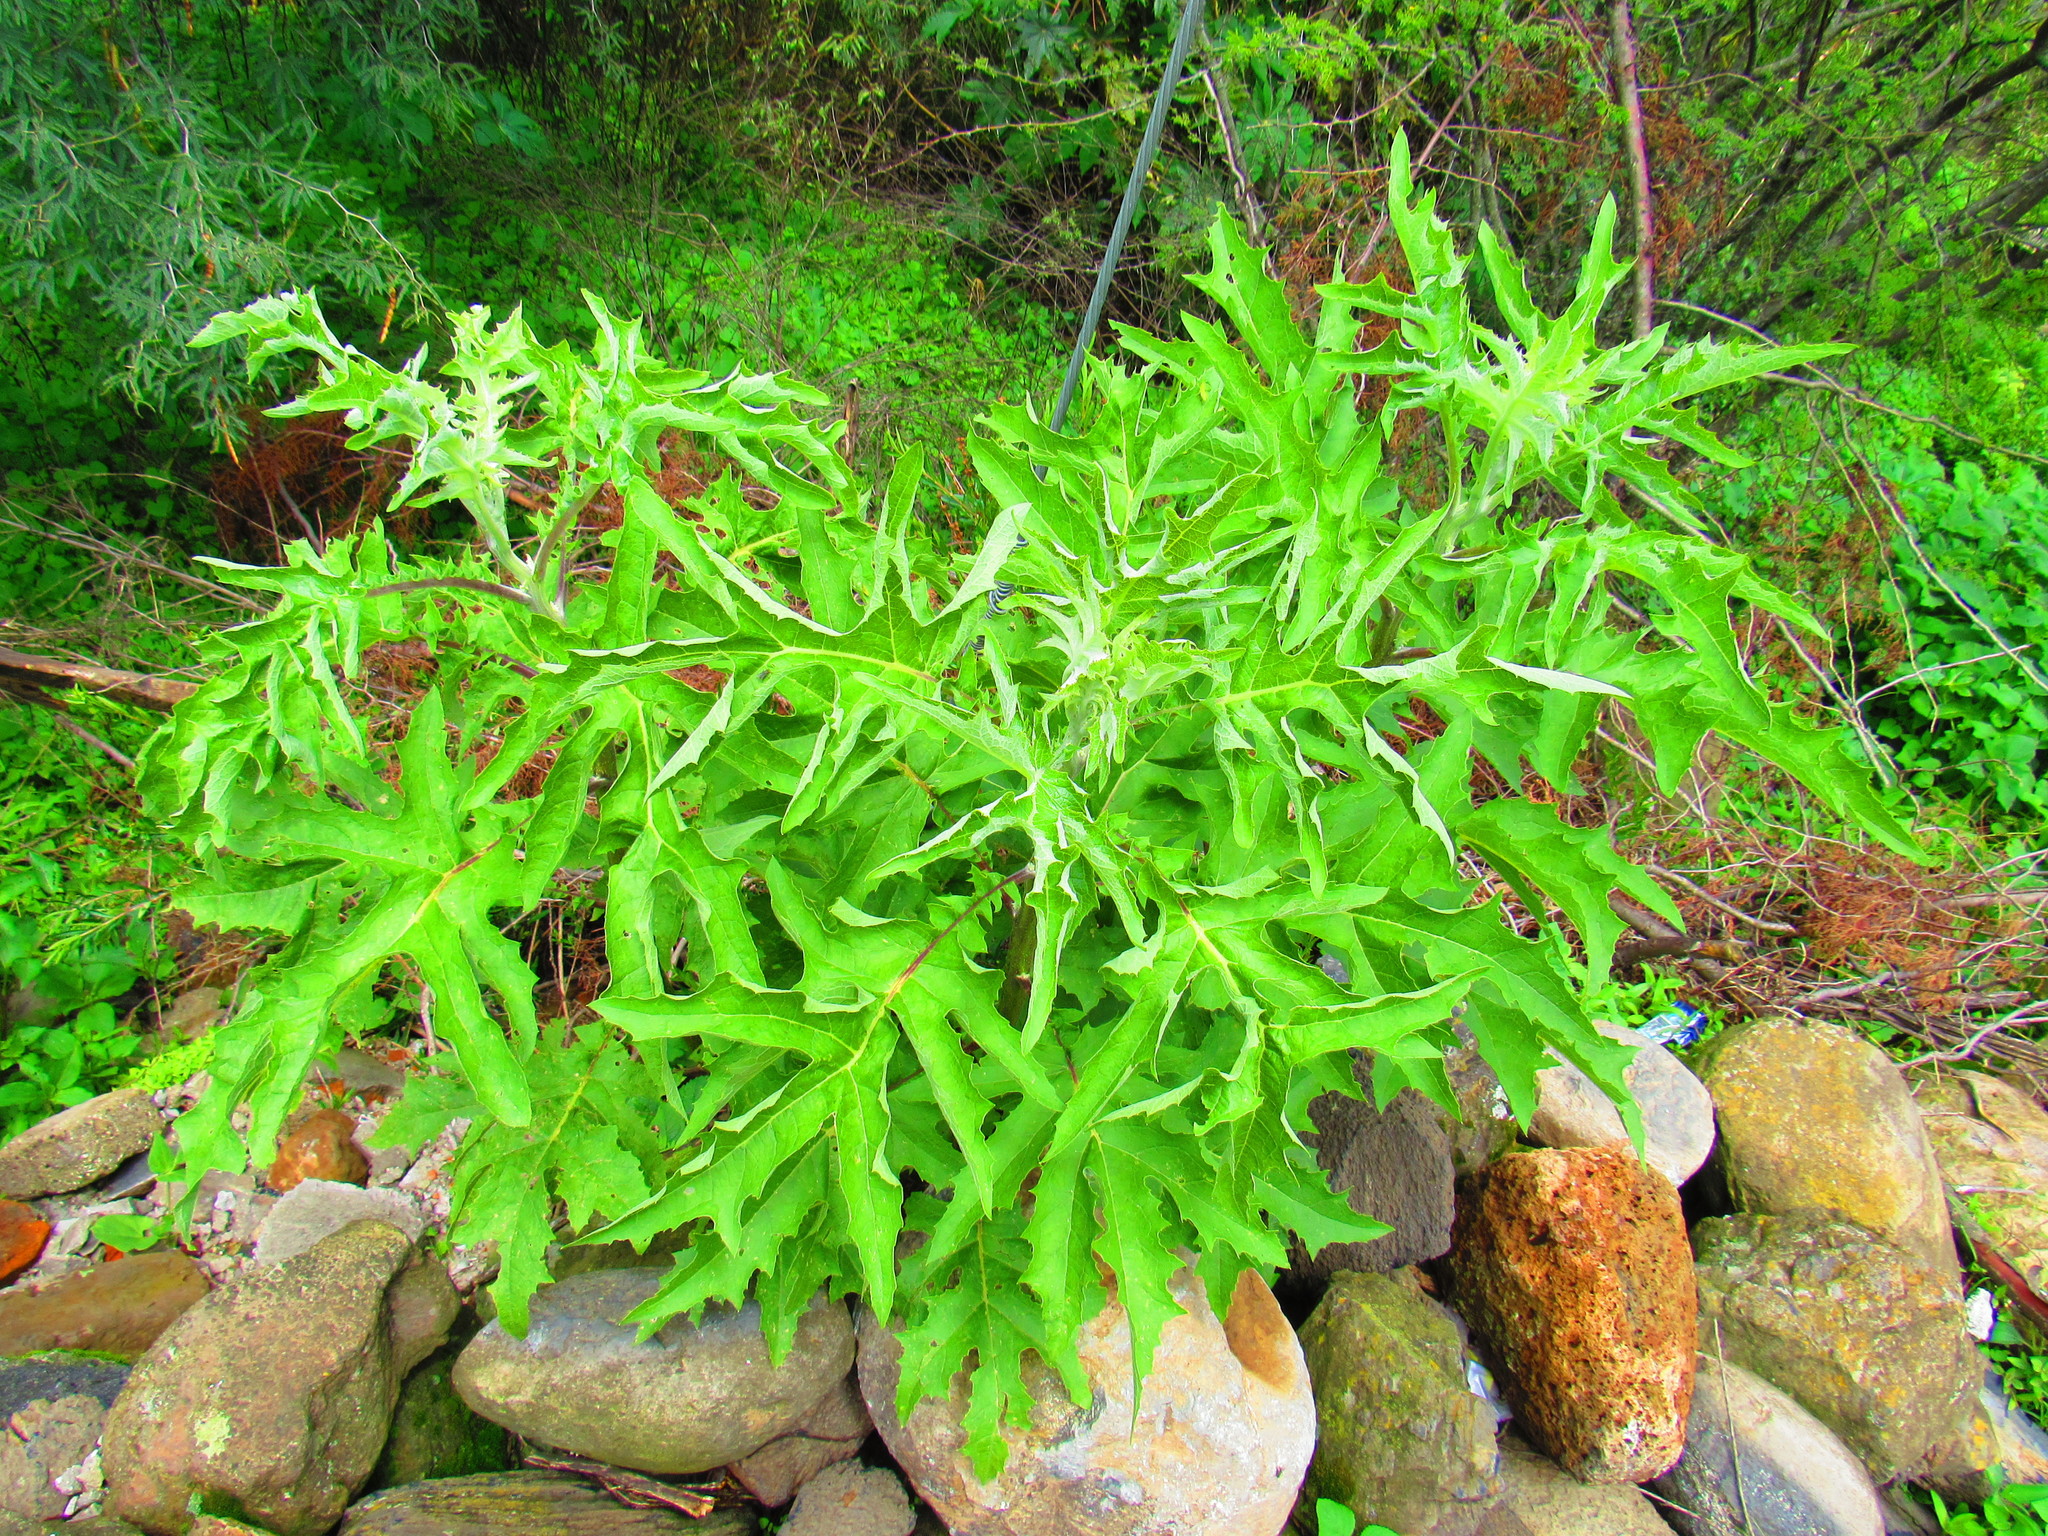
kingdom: Plantae
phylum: Tracheophyta
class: Magnoliopsida
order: Asterales
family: Asteraceae
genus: Roldana
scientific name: Roldana heracleifolia
